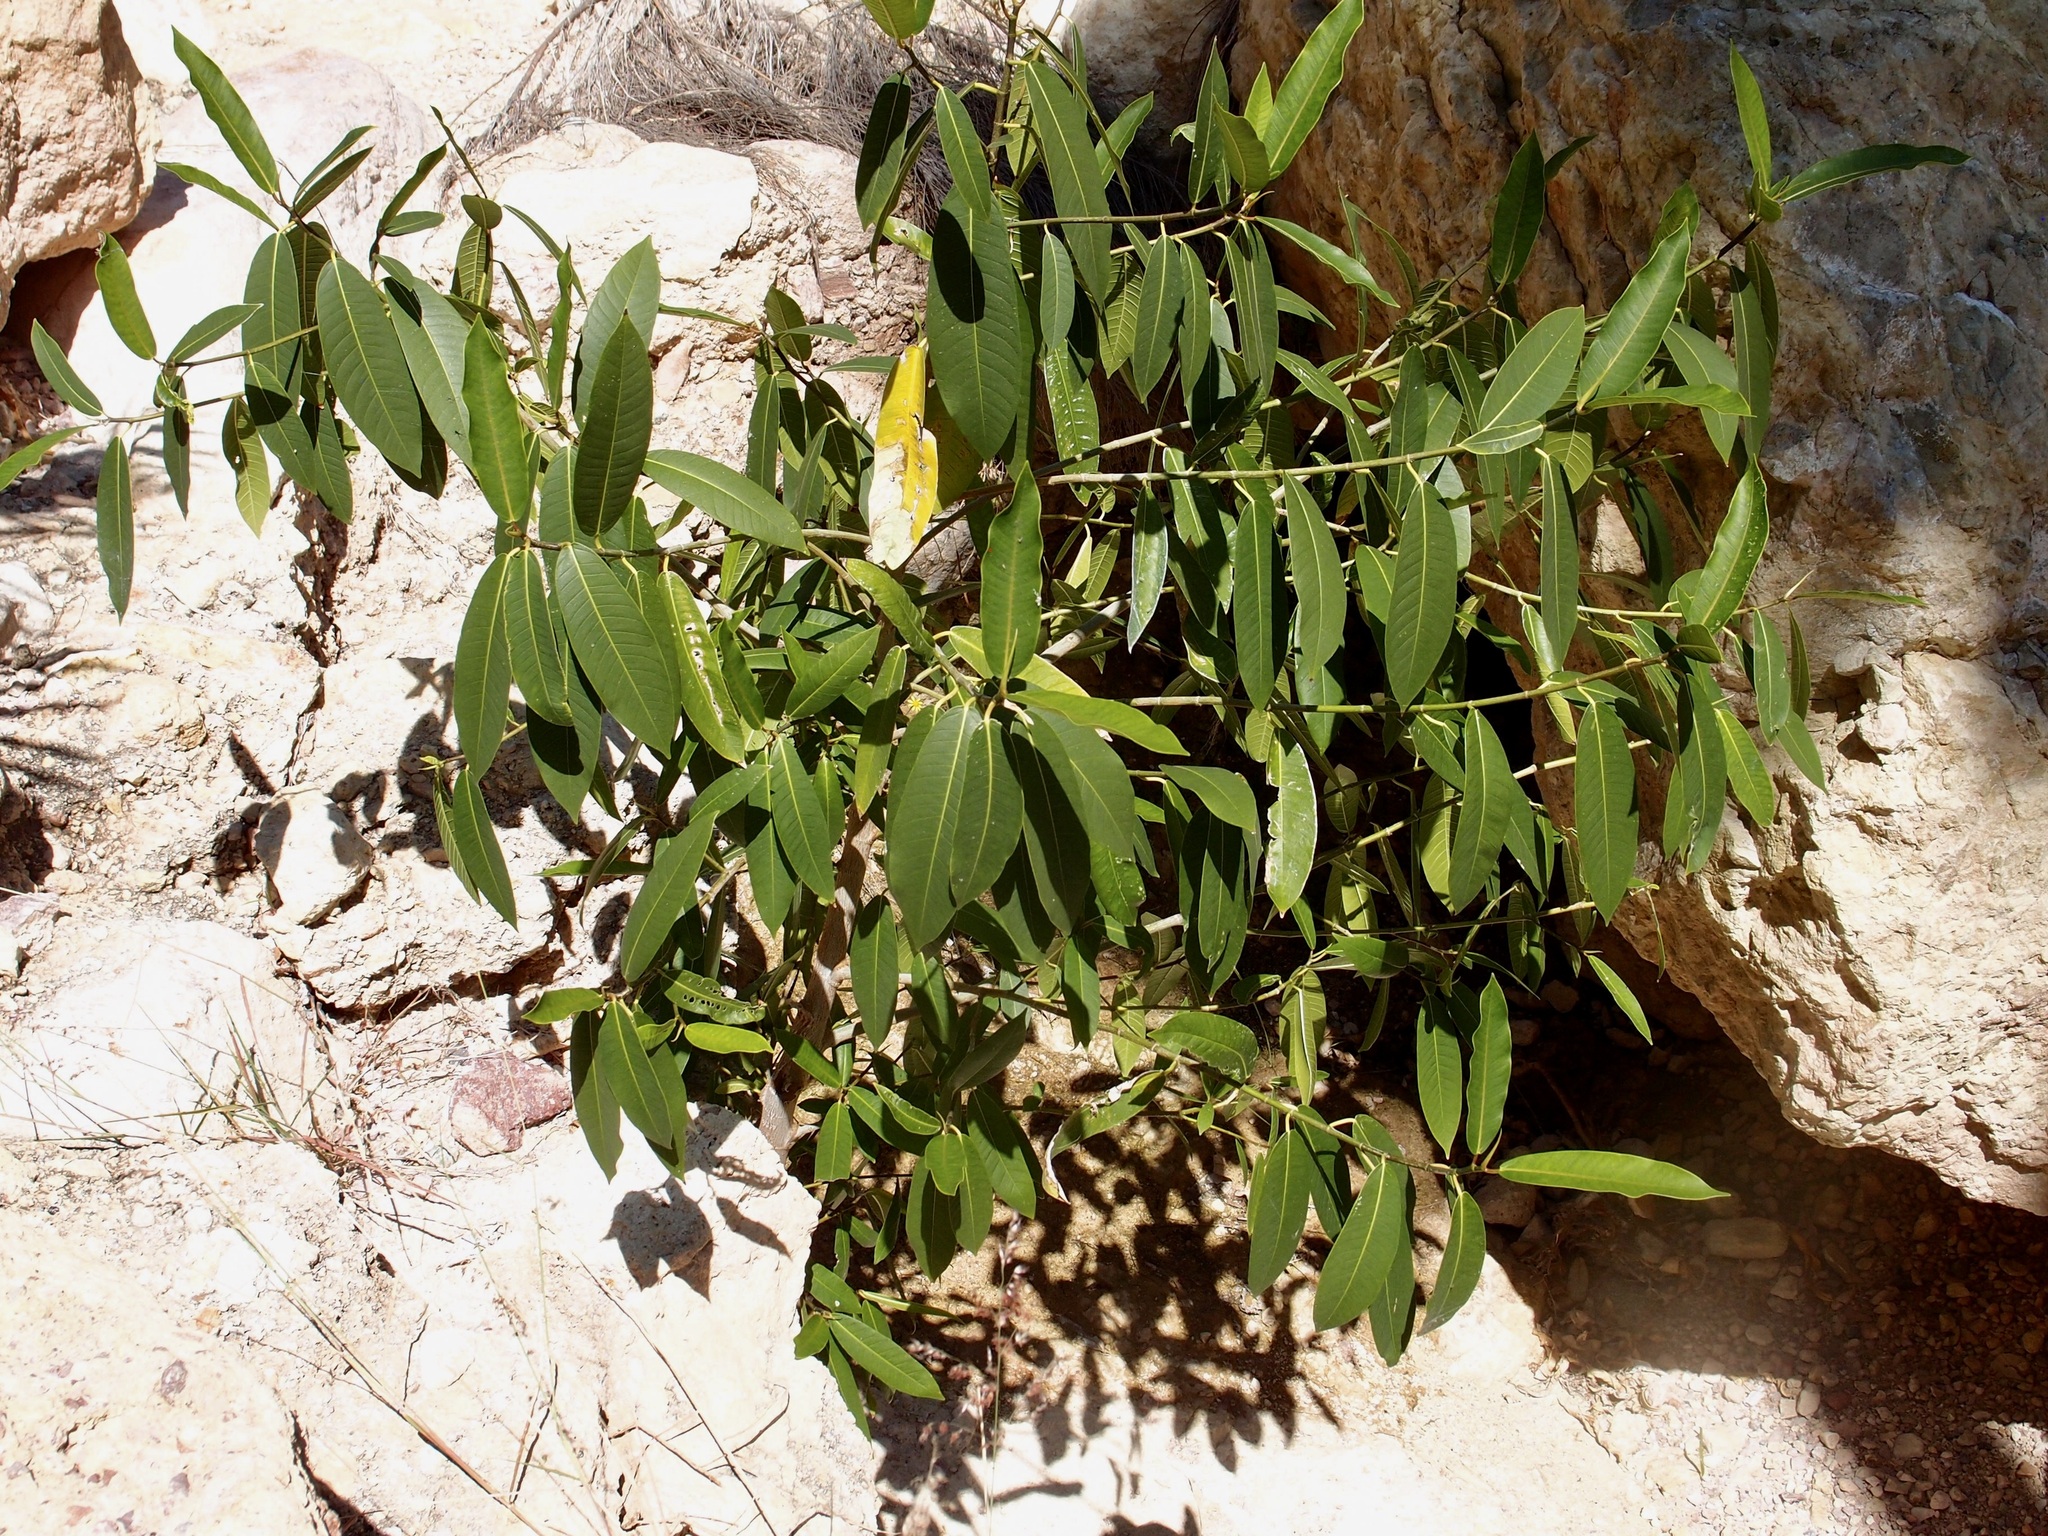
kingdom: Plantae
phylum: Tracheophyta
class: Magnoliopsida
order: Rosales
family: Moraceae
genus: Ficus
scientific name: Ficus insipida
